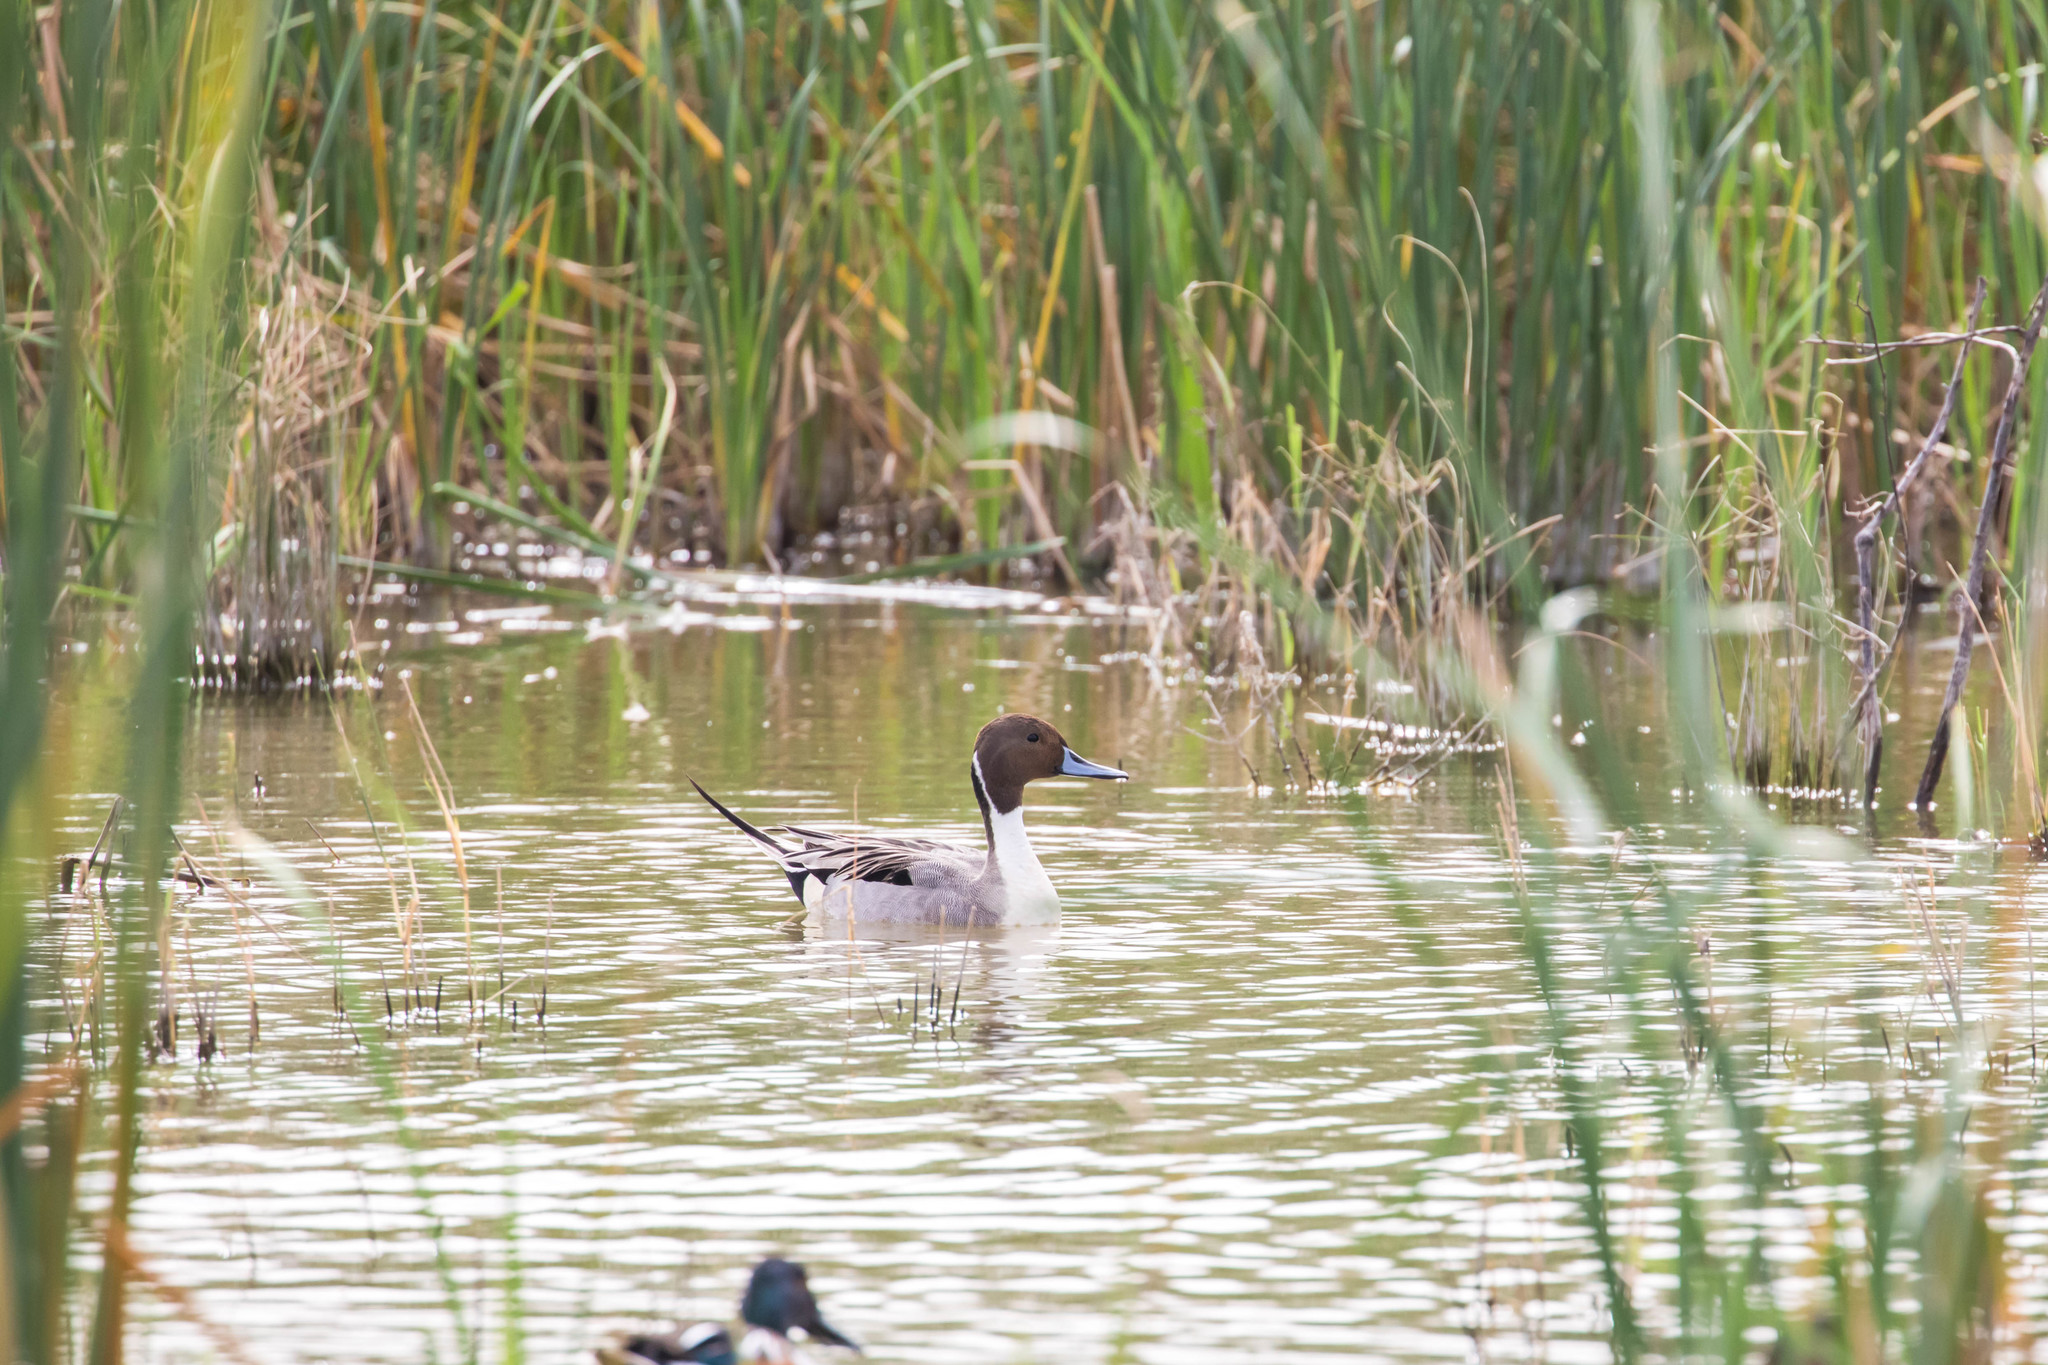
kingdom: Animalia
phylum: Chordata
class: Aves
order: Anseriformes
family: Anatidae
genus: Anas
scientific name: Anas acuta
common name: Northern pintail
